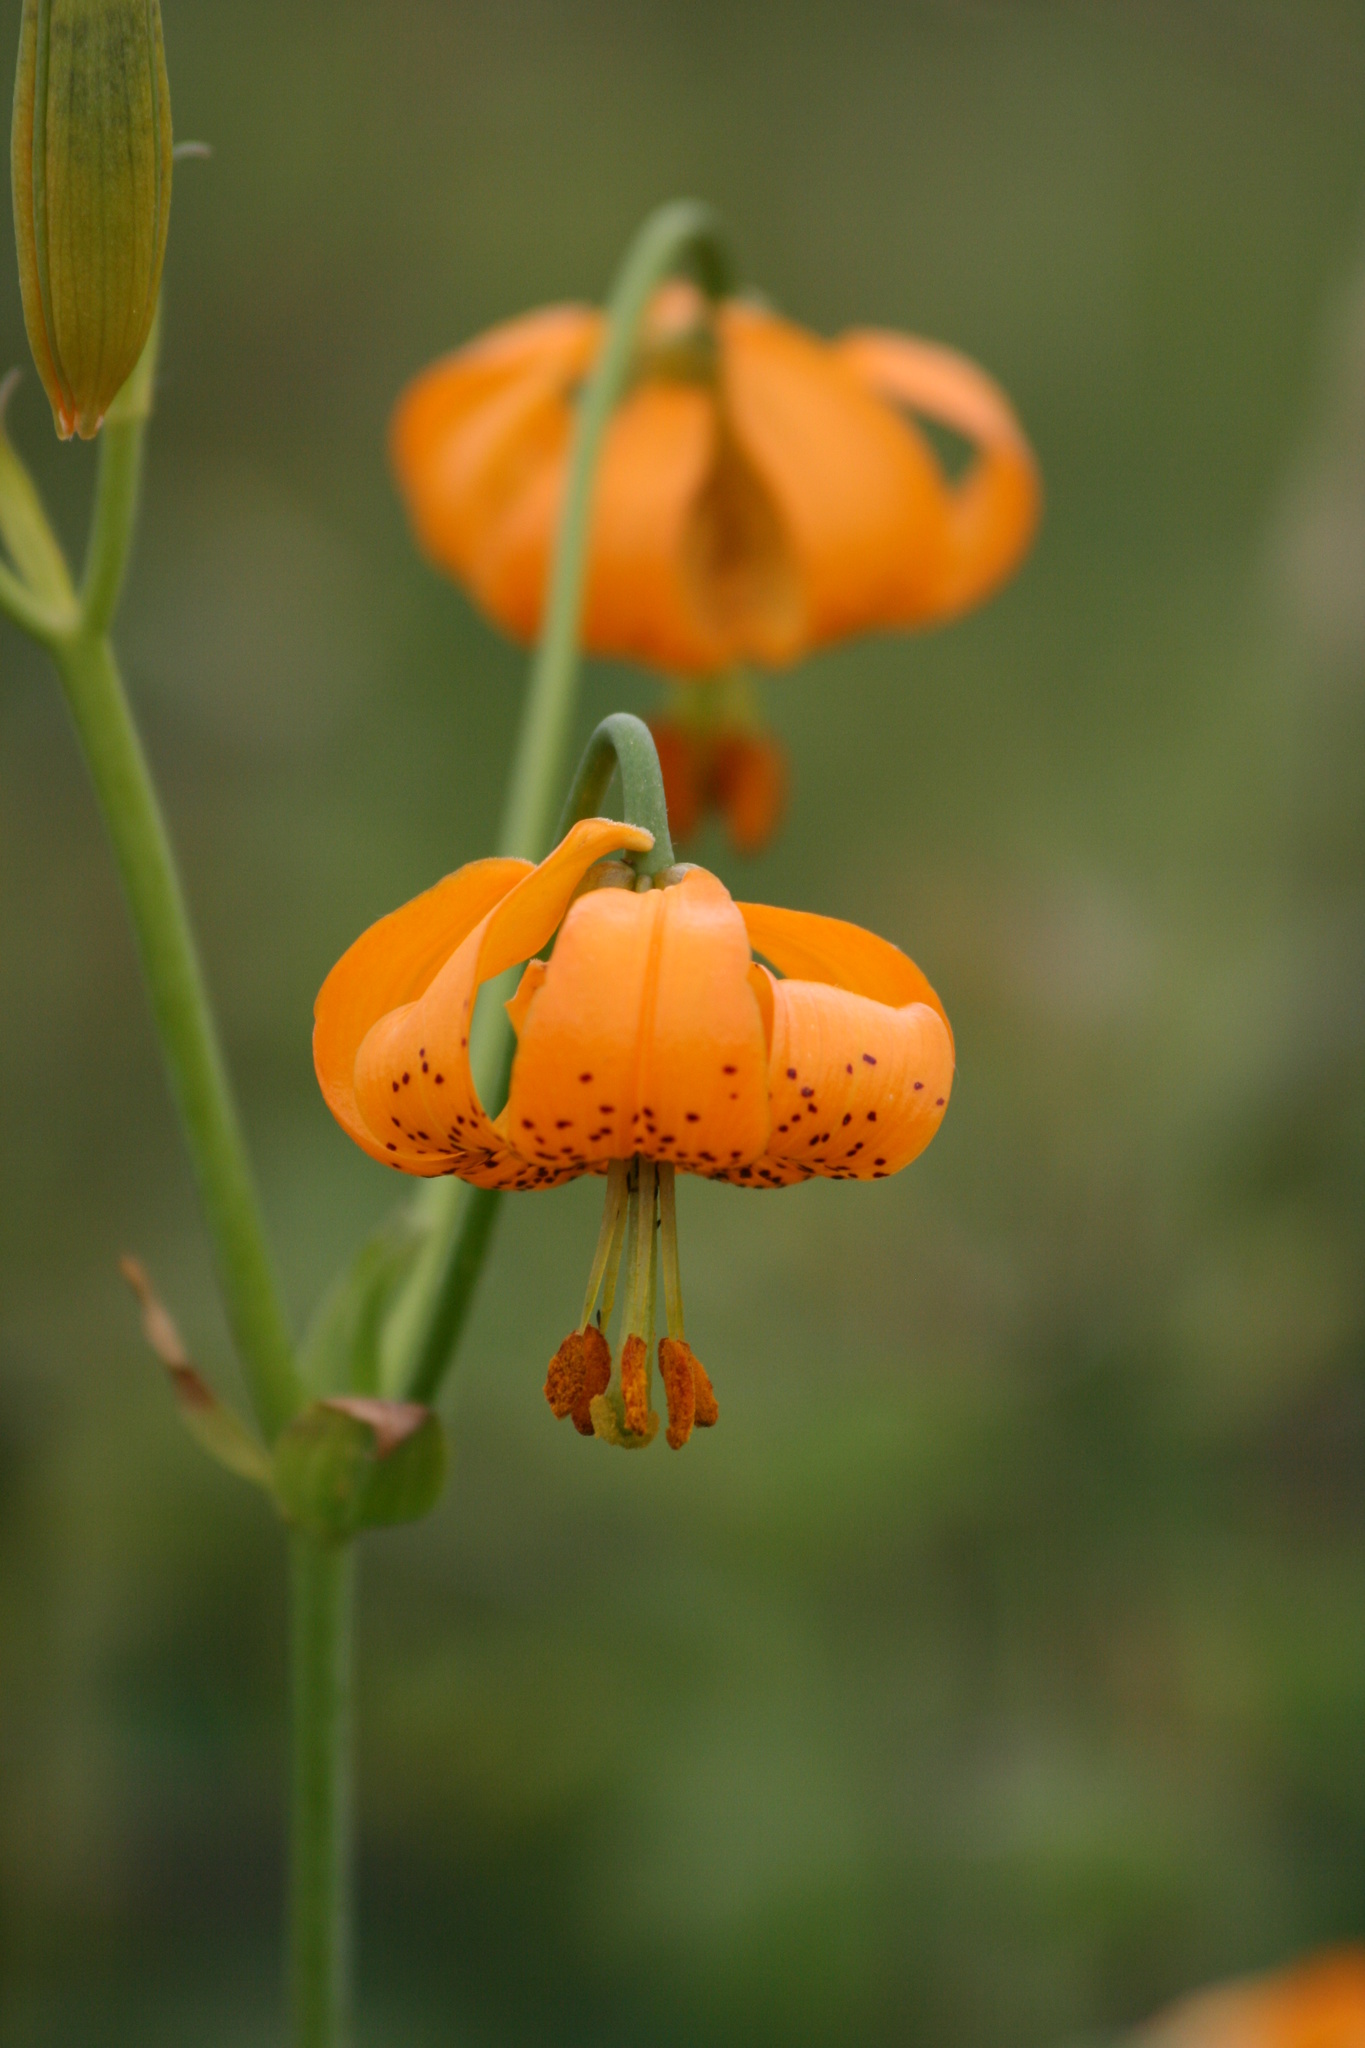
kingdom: Plantae
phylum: Tracheophyta
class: Liliopsida
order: Liliales
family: Liliaceae
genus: Lilium
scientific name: Lilium columbianum
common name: Columbia lily
